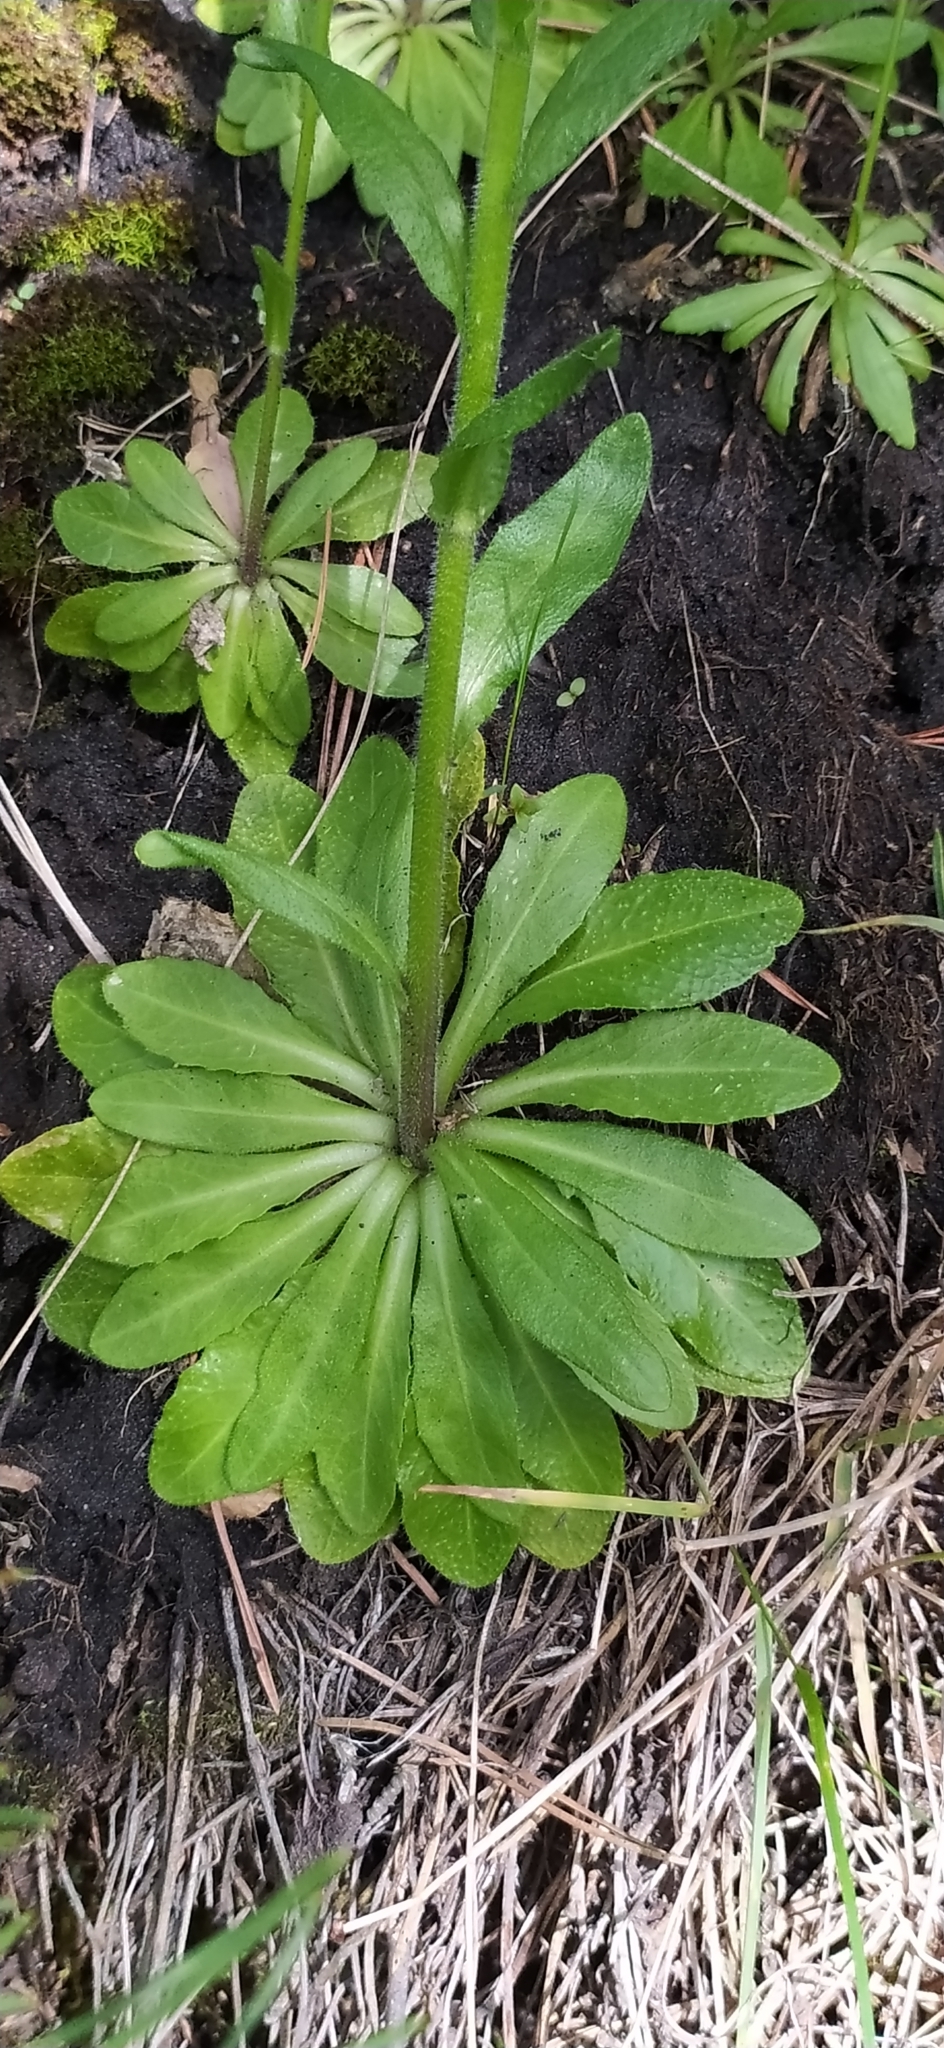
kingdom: Plantae
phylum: Tracheophyta
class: Magnoliopsida
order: Brassicales
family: Brassicaceae
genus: Arabis
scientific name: Arabis sagittata
